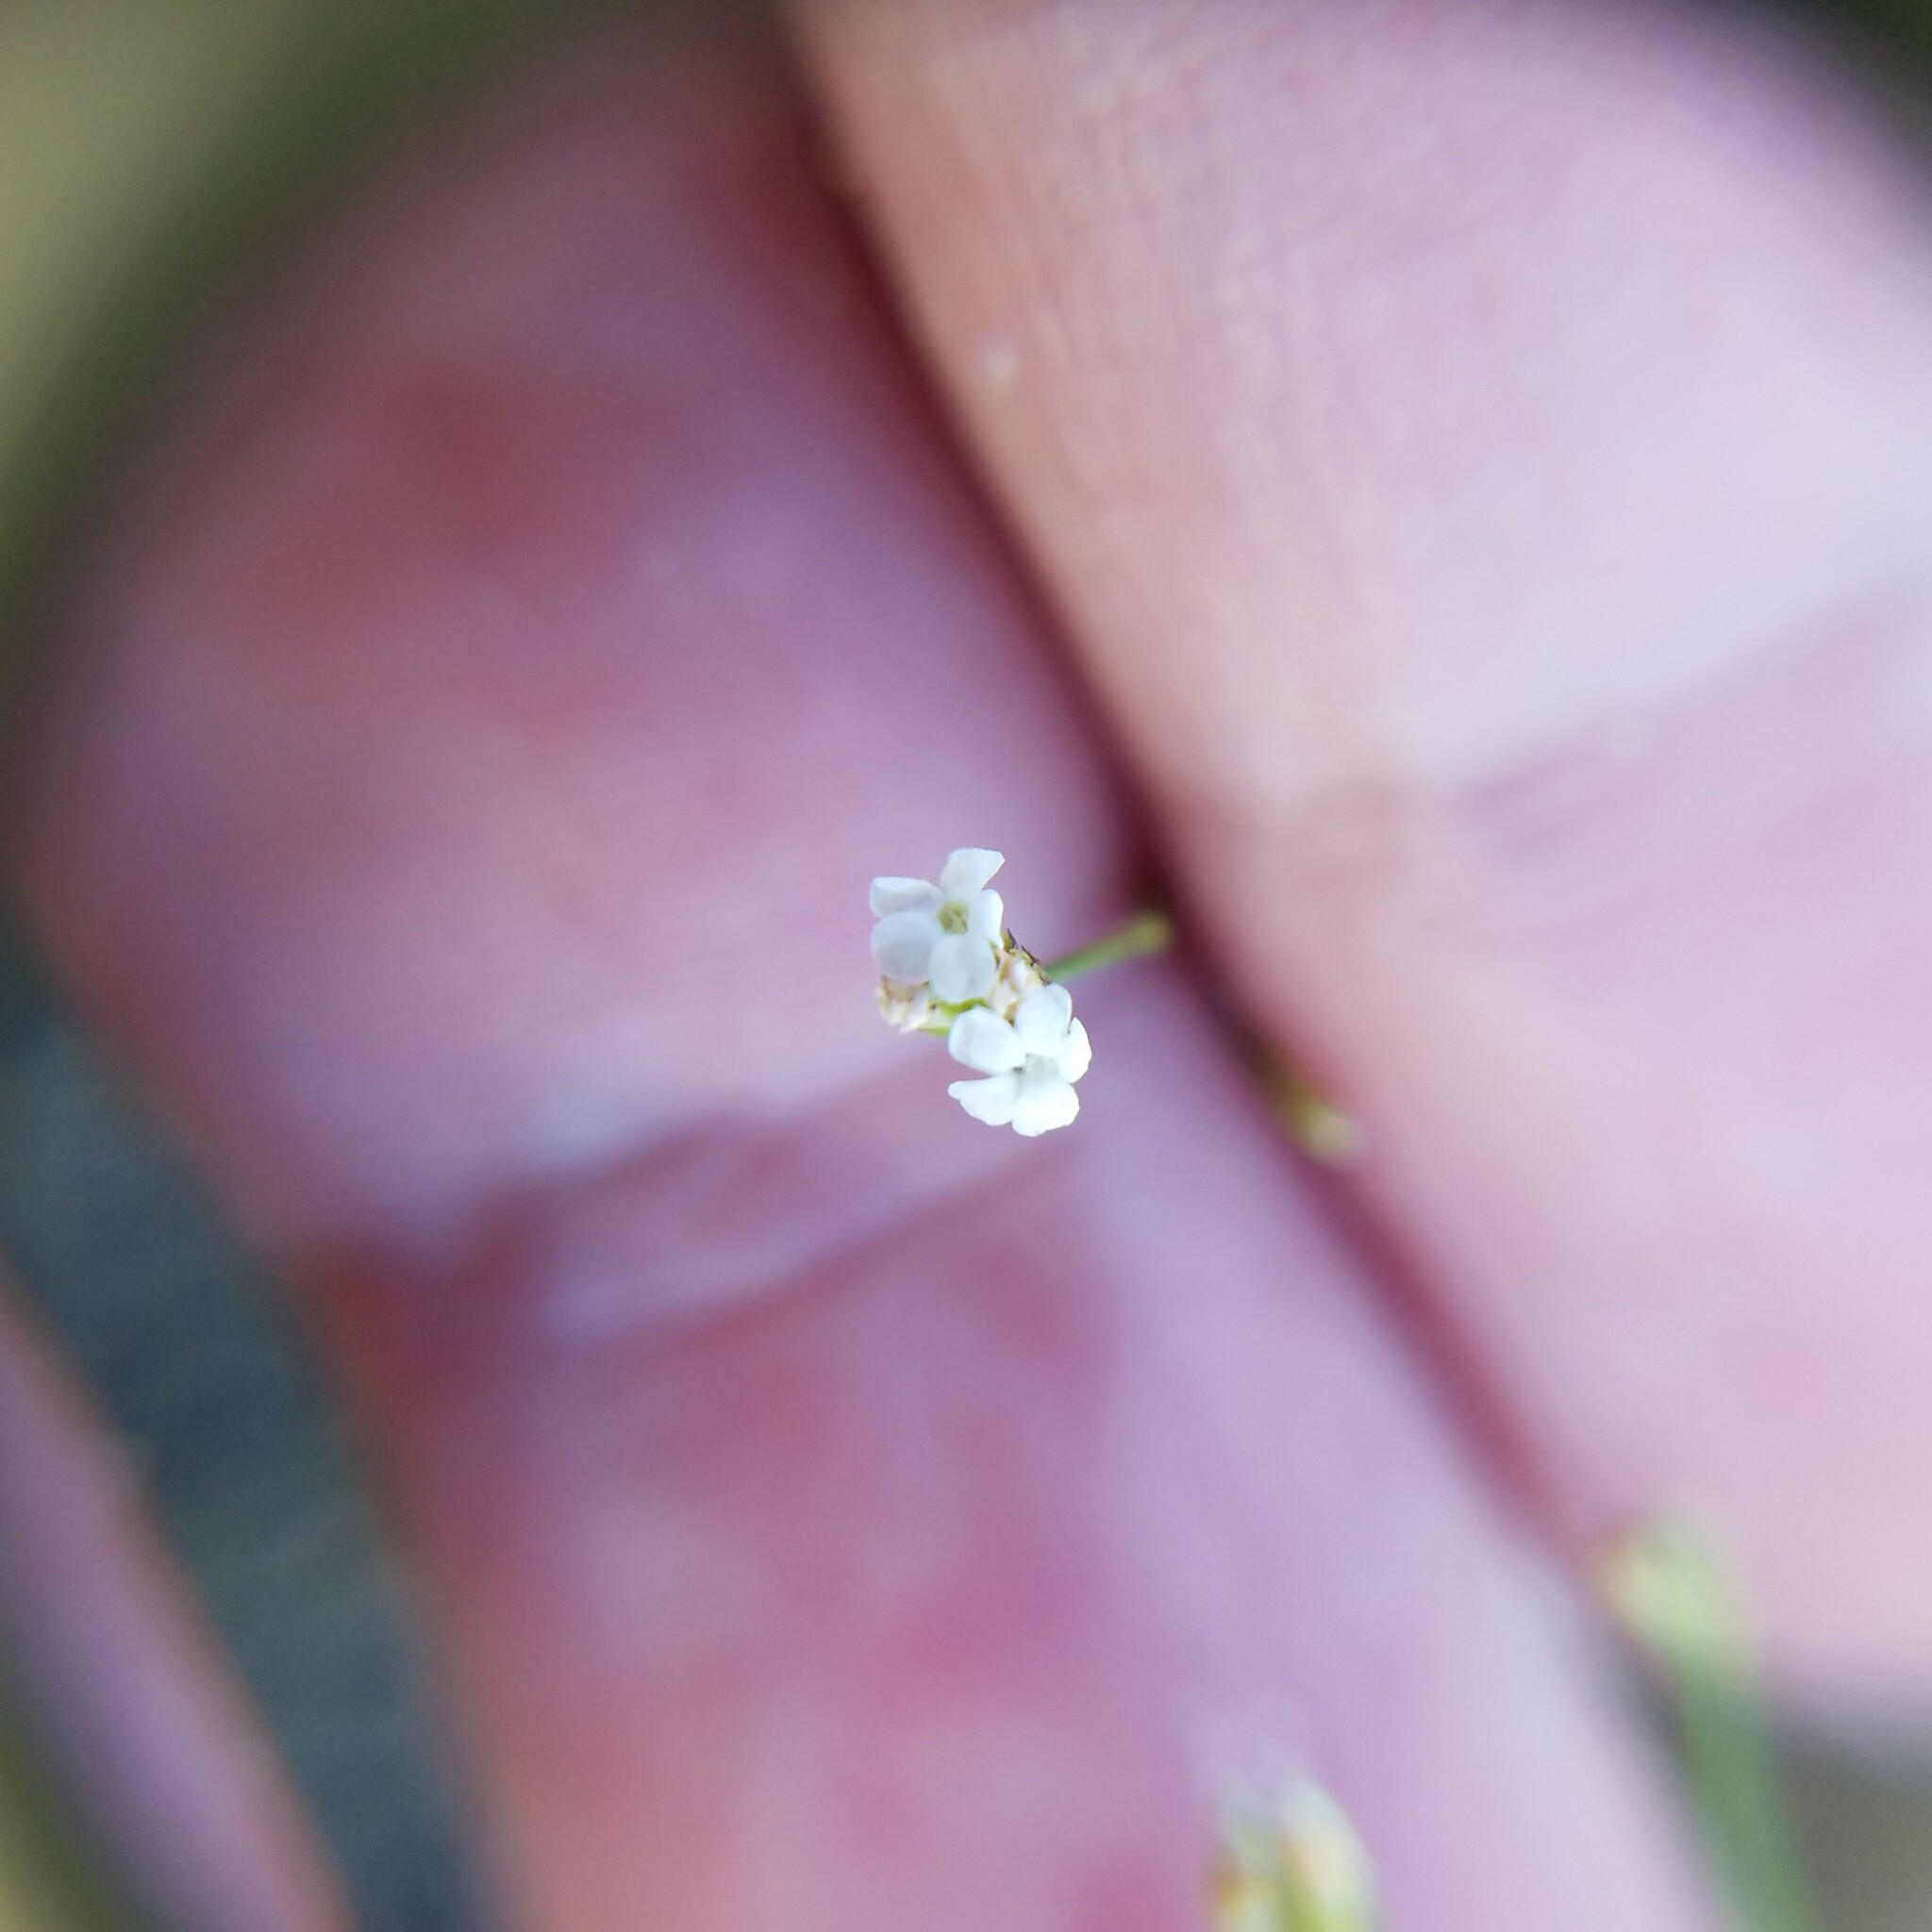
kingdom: Plantae
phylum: Tracheophyta
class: Magnoliopsida
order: Caryophyllales
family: Caryophyllaceae
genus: Stipulicida
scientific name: Stipulicida setacea
